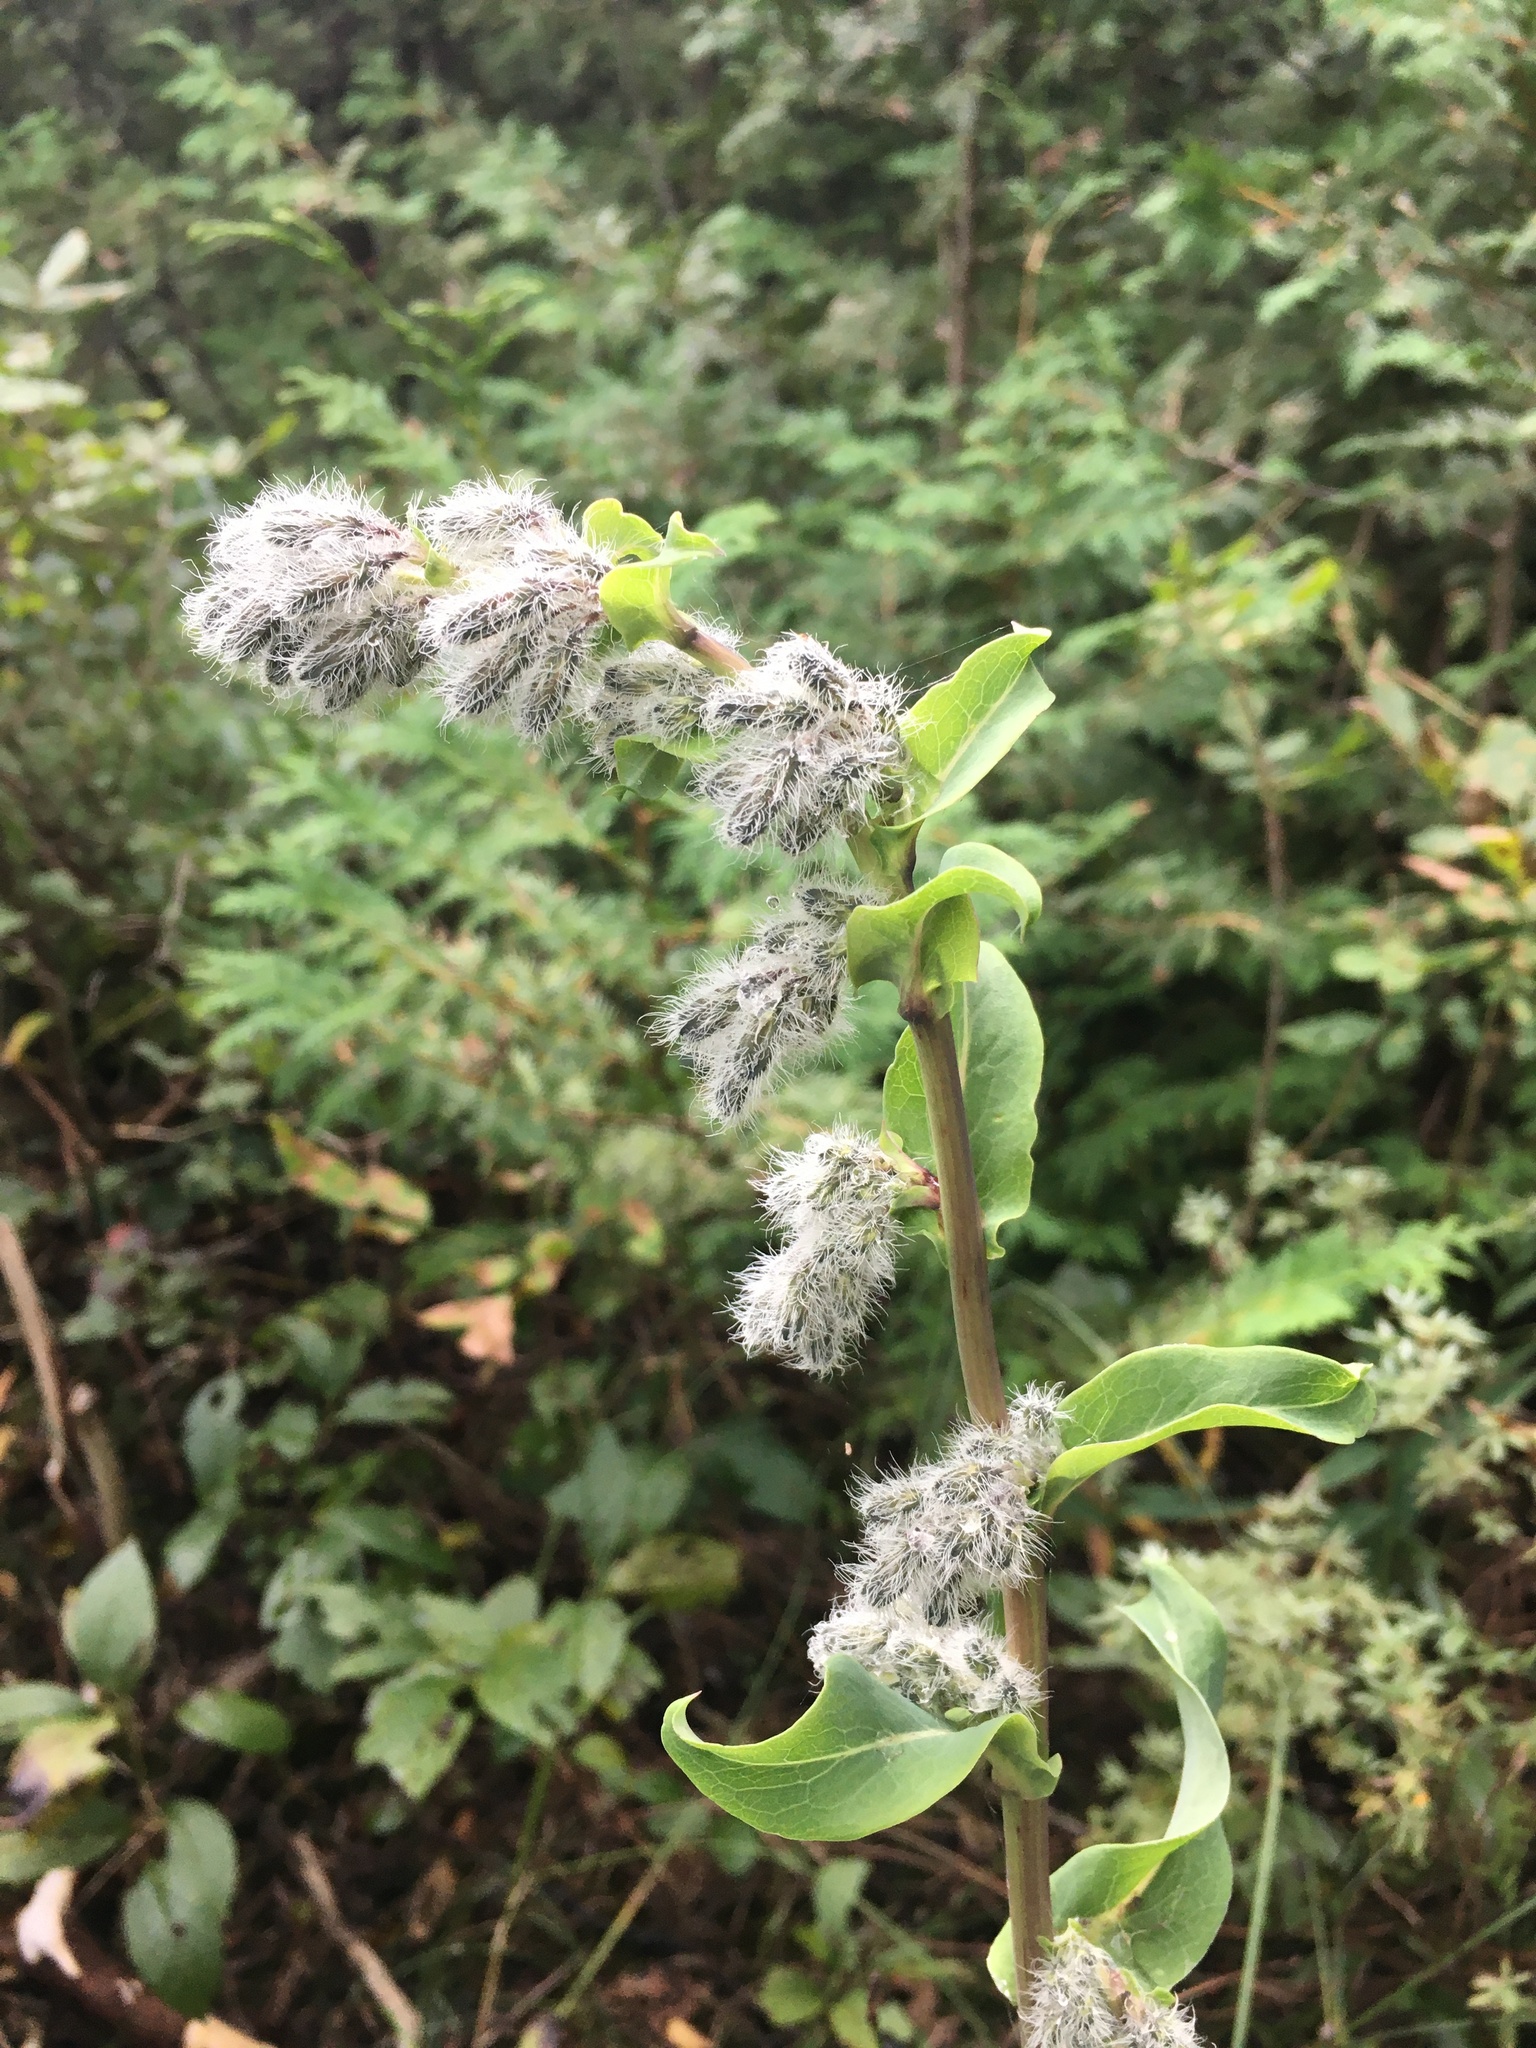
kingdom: Plantae
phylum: Tracheophyta
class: Magnoliopsida
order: Asterales
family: Asteraceae
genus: Nabalus
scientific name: Nabalus racemosus
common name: Glaucous white lettuce
